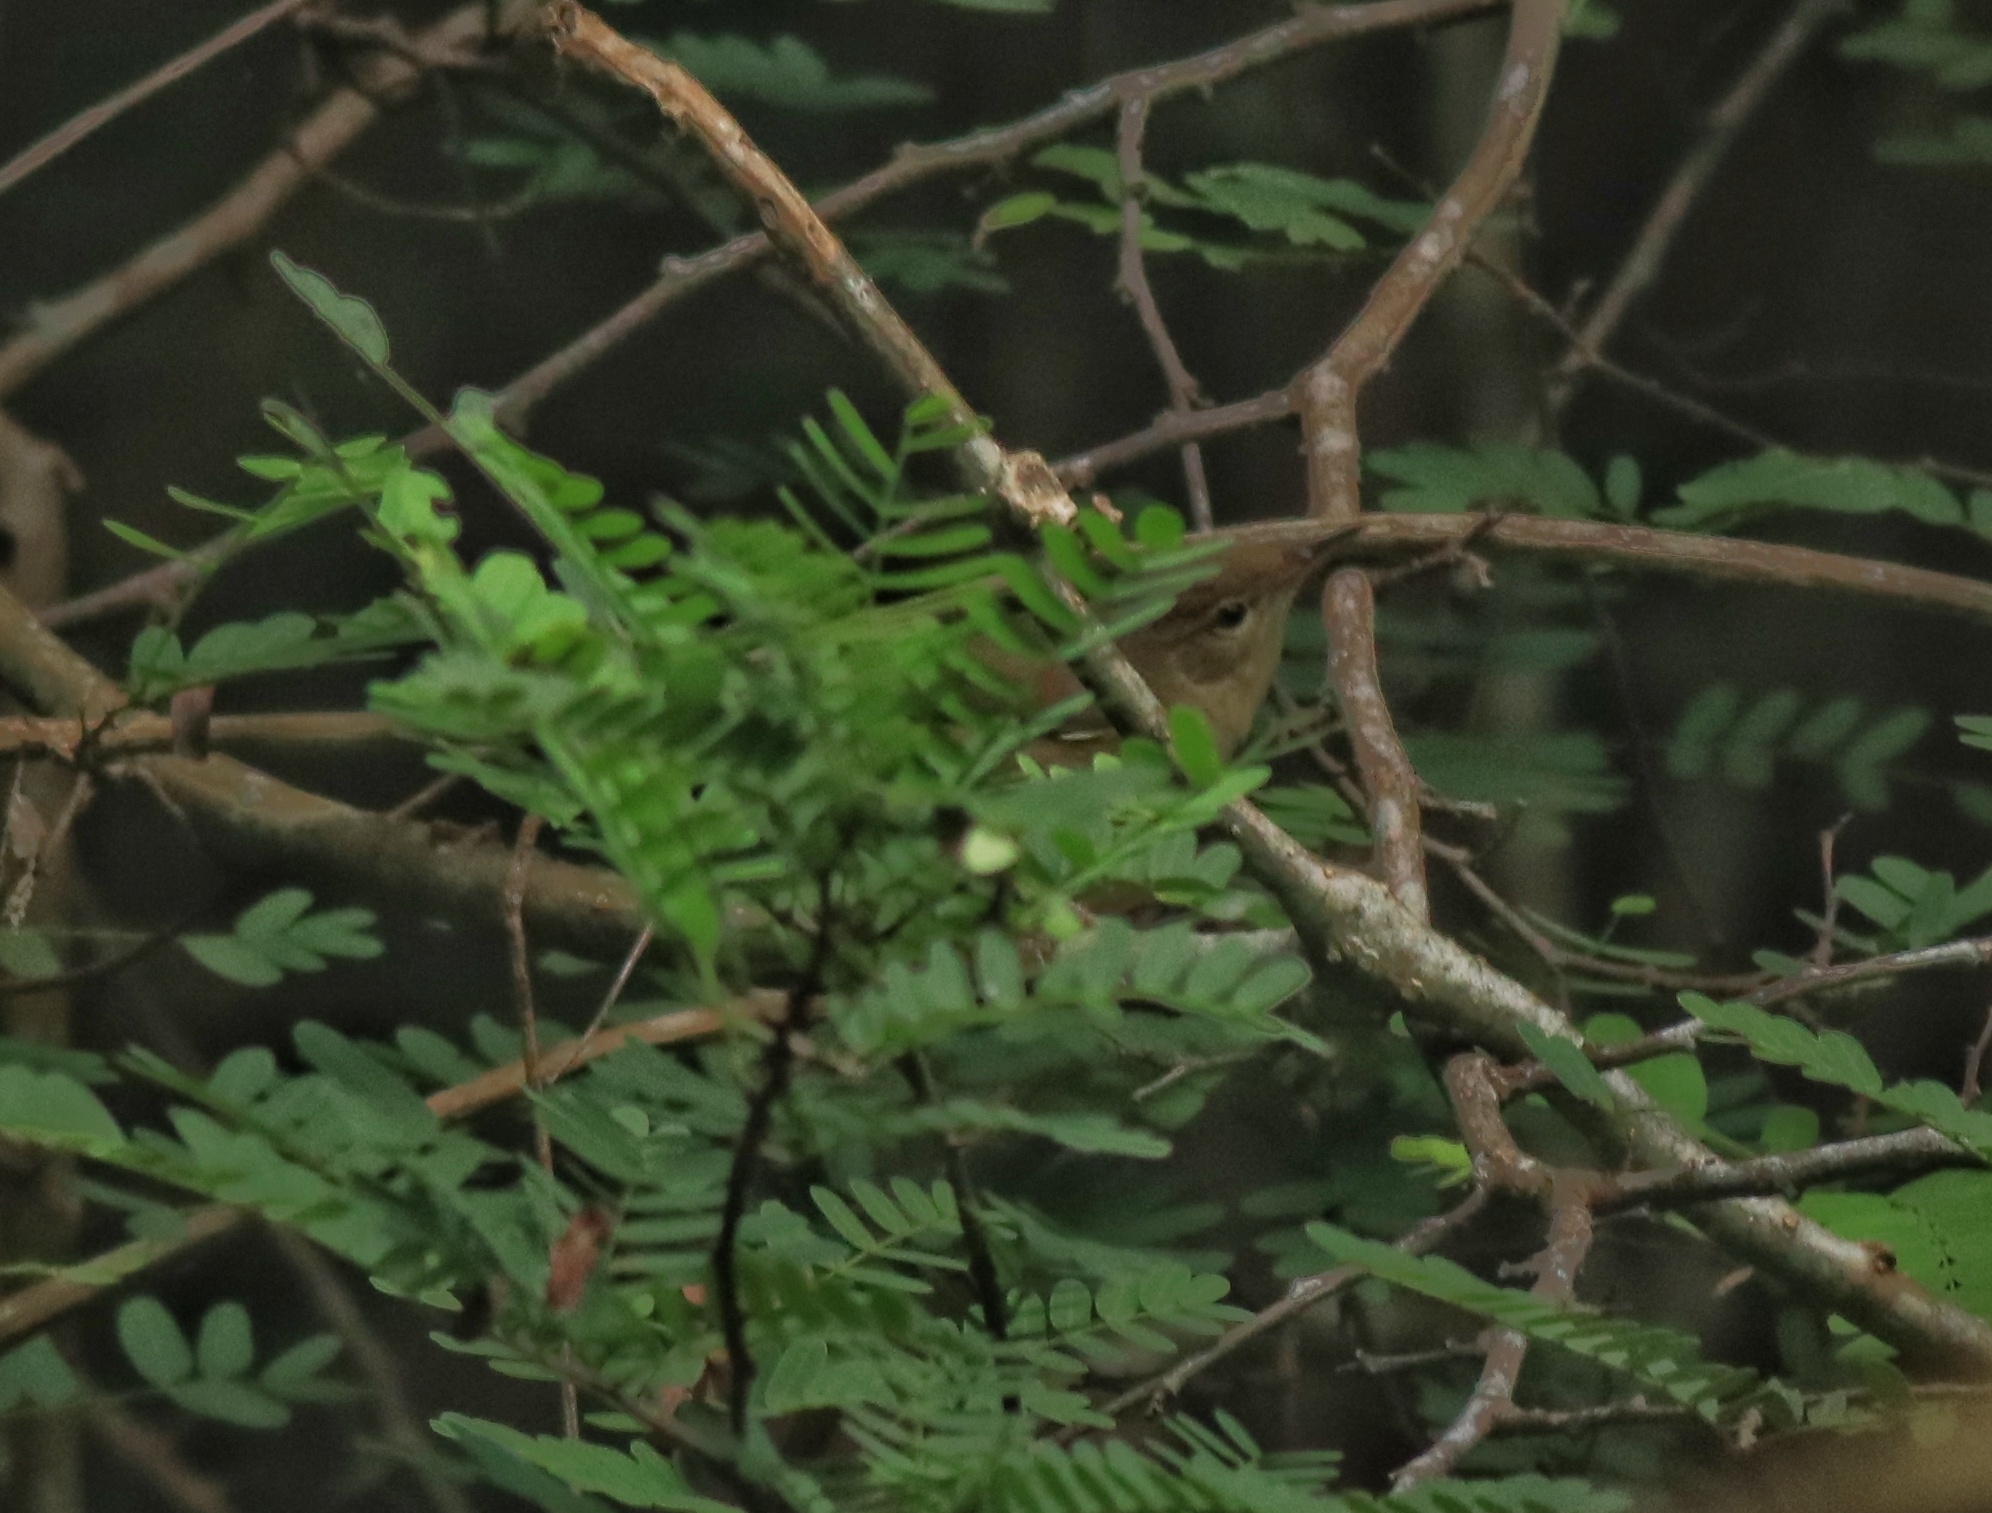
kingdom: Animalia
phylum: Chordata
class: Aves
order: Passeriformes
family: Acrocephalidae
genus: Acrocephalus
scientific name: Acrocephalus dumetorum
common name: Blyth's reed warbler
